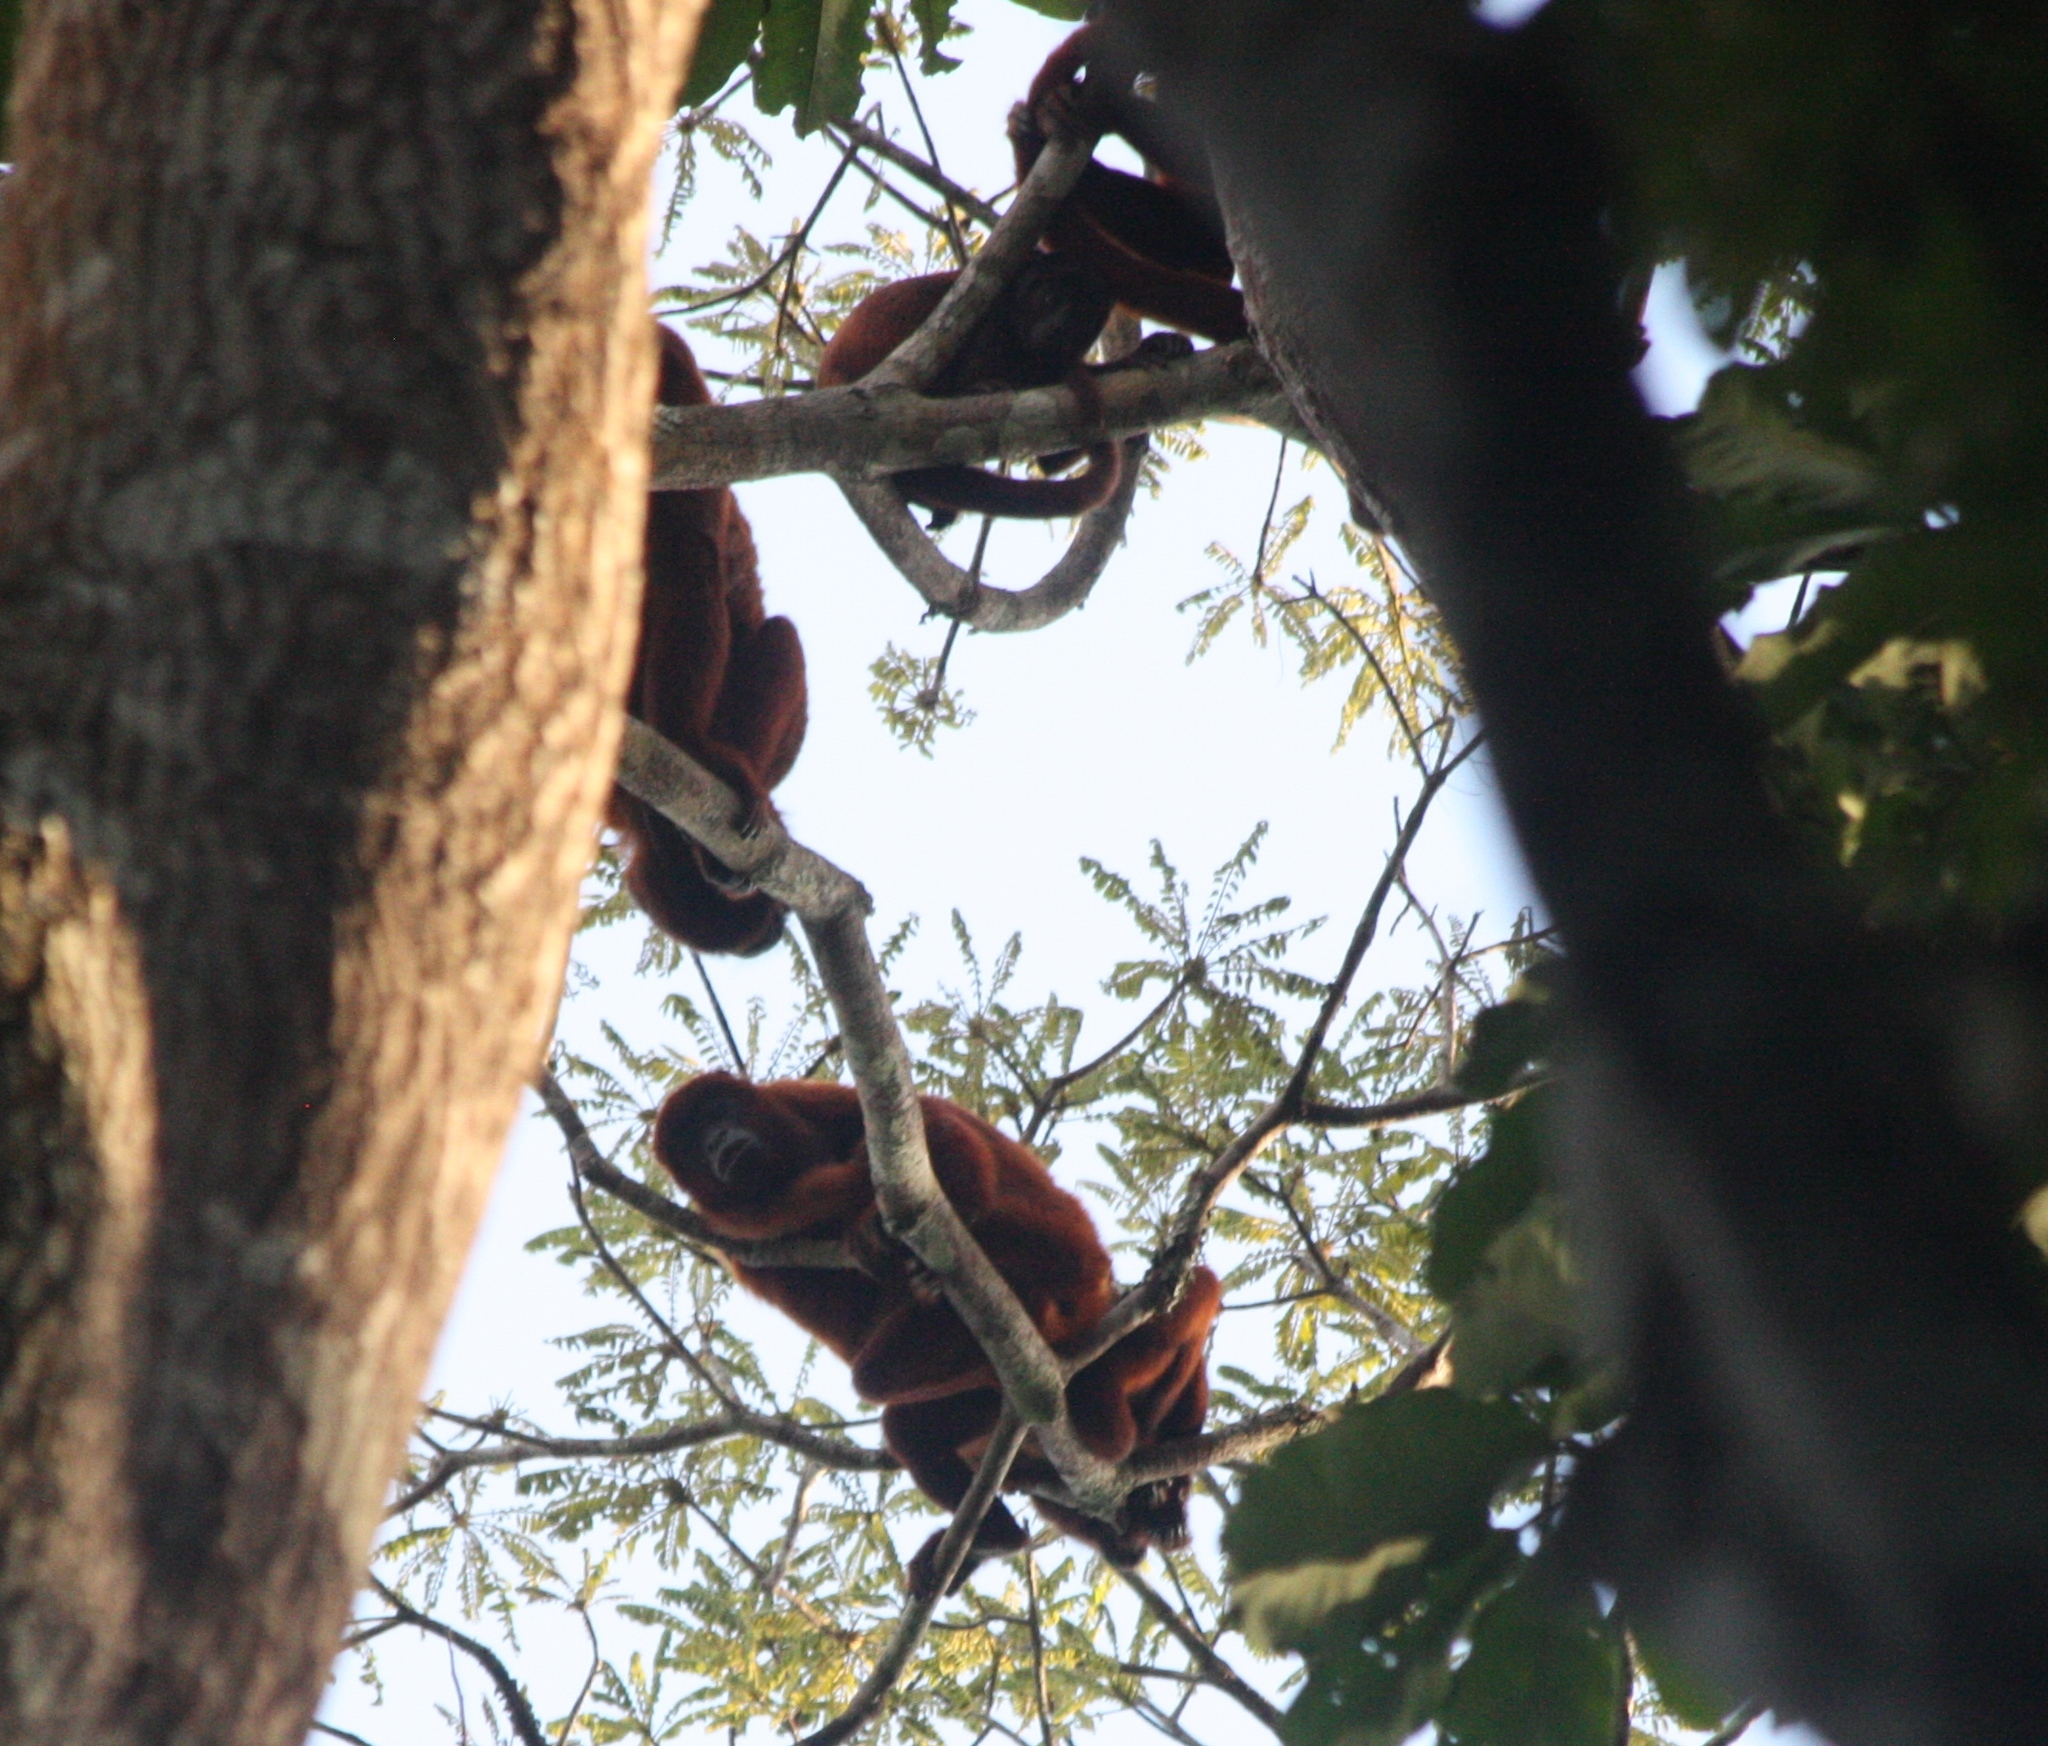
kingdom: Animalia
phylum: Chordata
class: Mammalia
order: Primates
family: Atelidae
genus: Alouatta
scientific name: Alouatta sara
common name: Bolivian red howler
